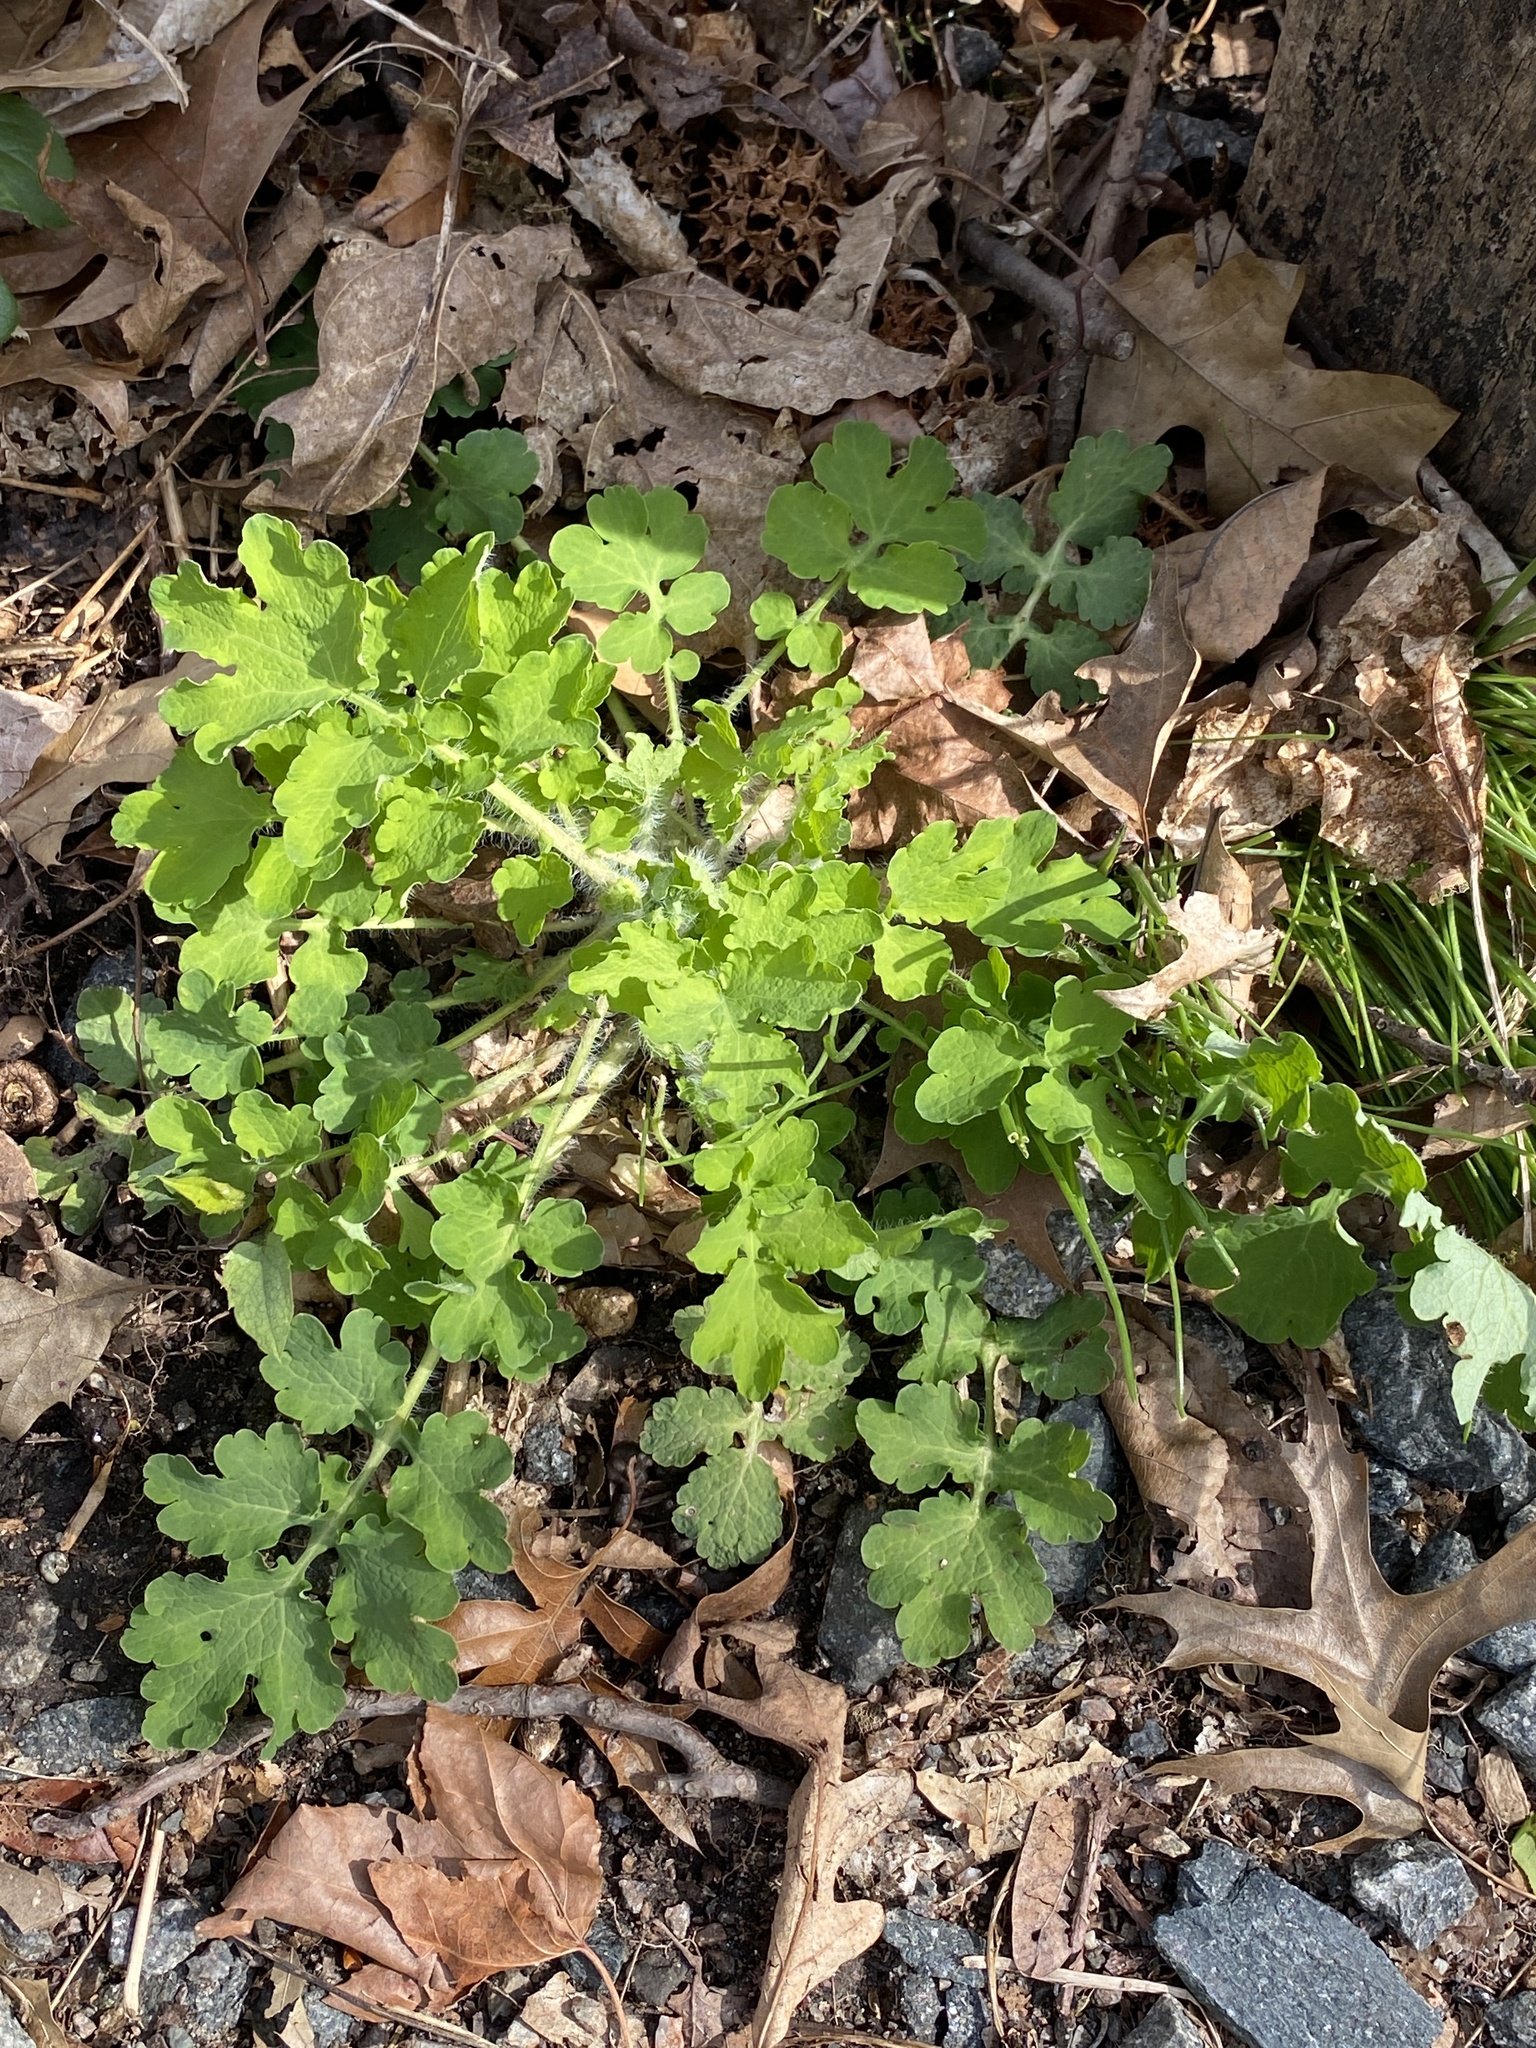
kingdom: Plantae
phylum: Tracheophyta
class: Magnoliopsida
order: Ranunculales
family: Papaveraceae
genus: Chelidonium
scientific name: Chelidonium majus
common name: Greater celandine
